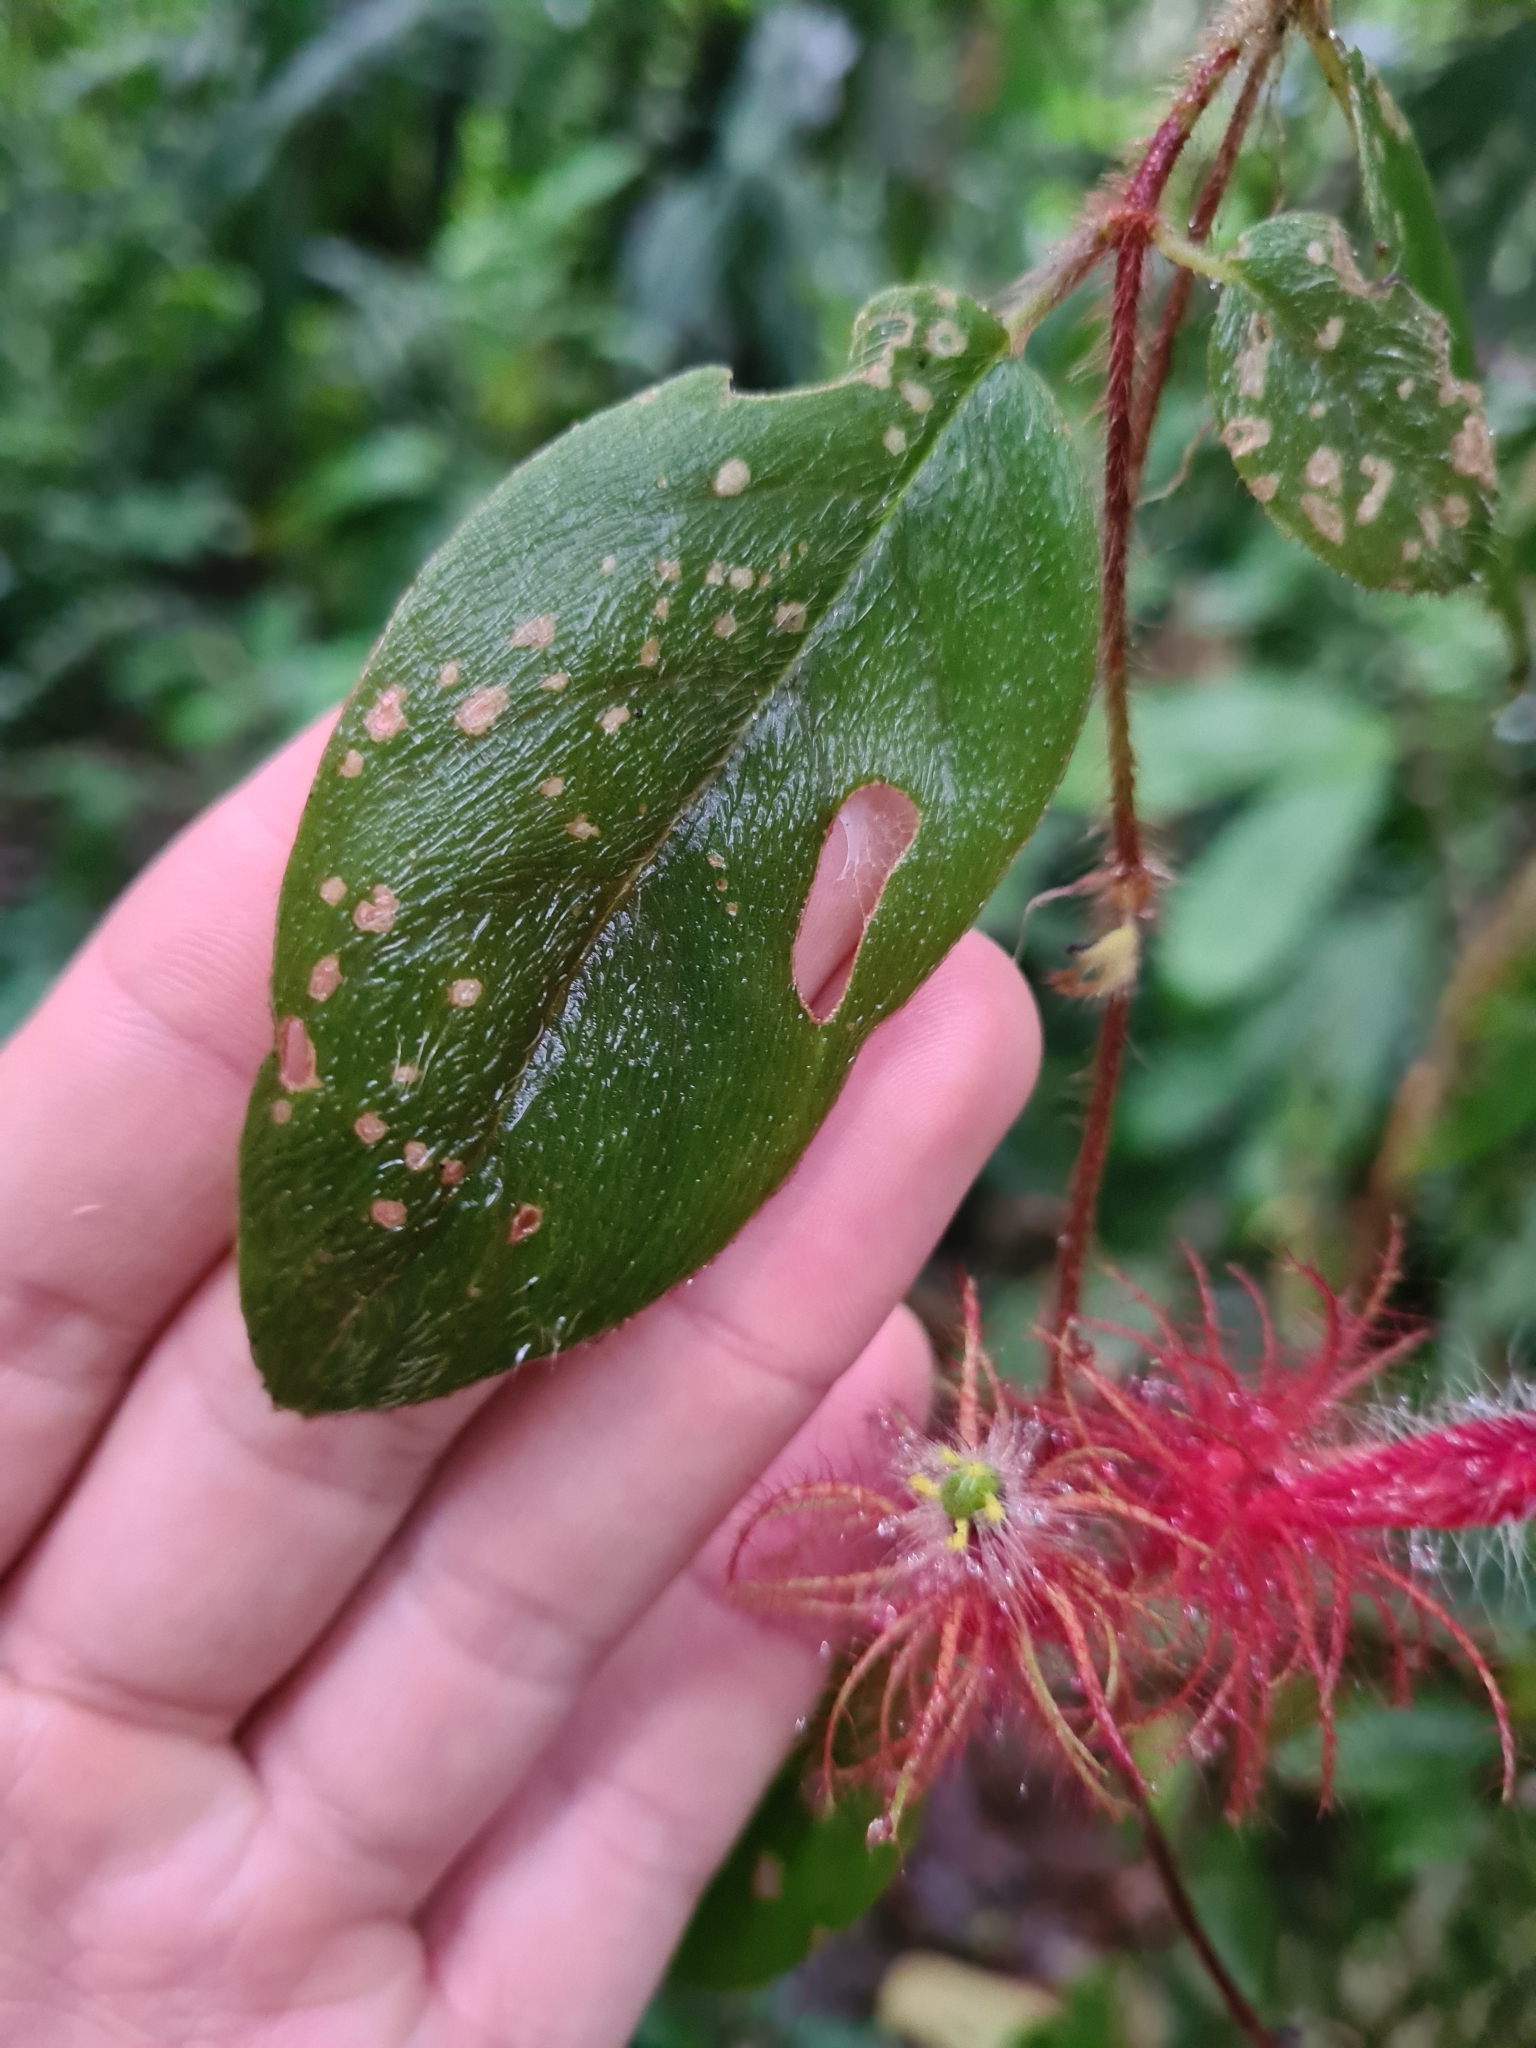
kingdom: Plantae
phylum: Tracheophyta
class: Magnoliopsida
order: Lamiales
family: Gesneriaceae
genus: Columnea
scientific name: Columnea minor
